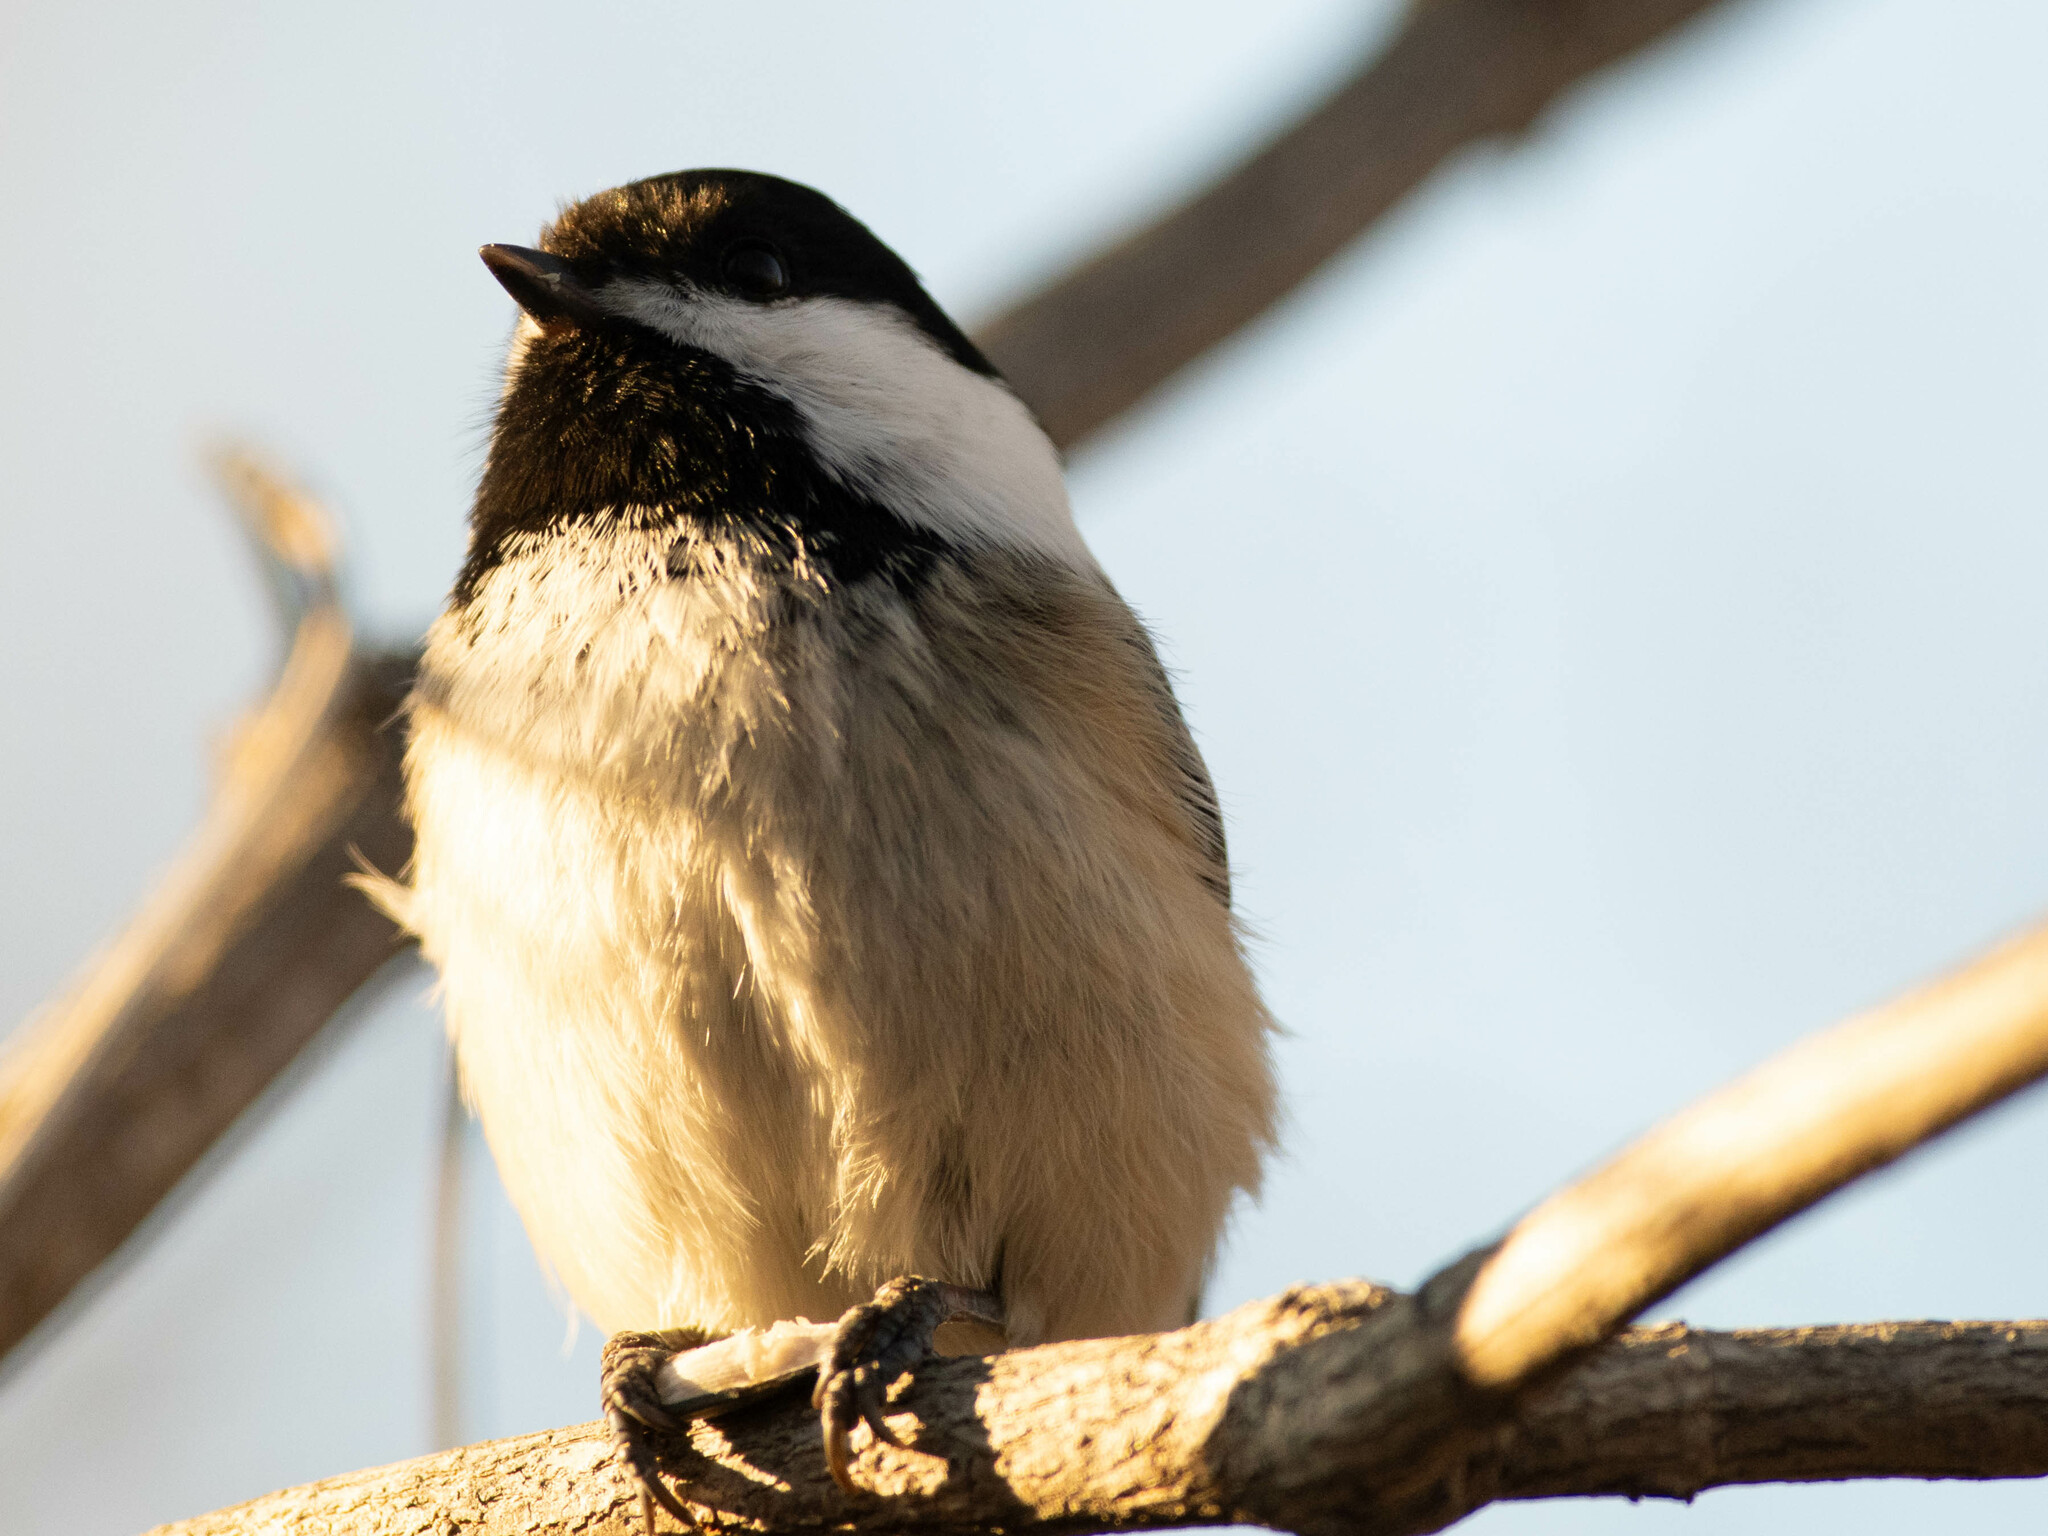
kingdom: Animalia
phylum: Chordata
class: Aves
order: Passeriformes
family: Paridae
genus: Poecile
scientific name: Poecile atricapillus
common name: Black-capped chickadee
